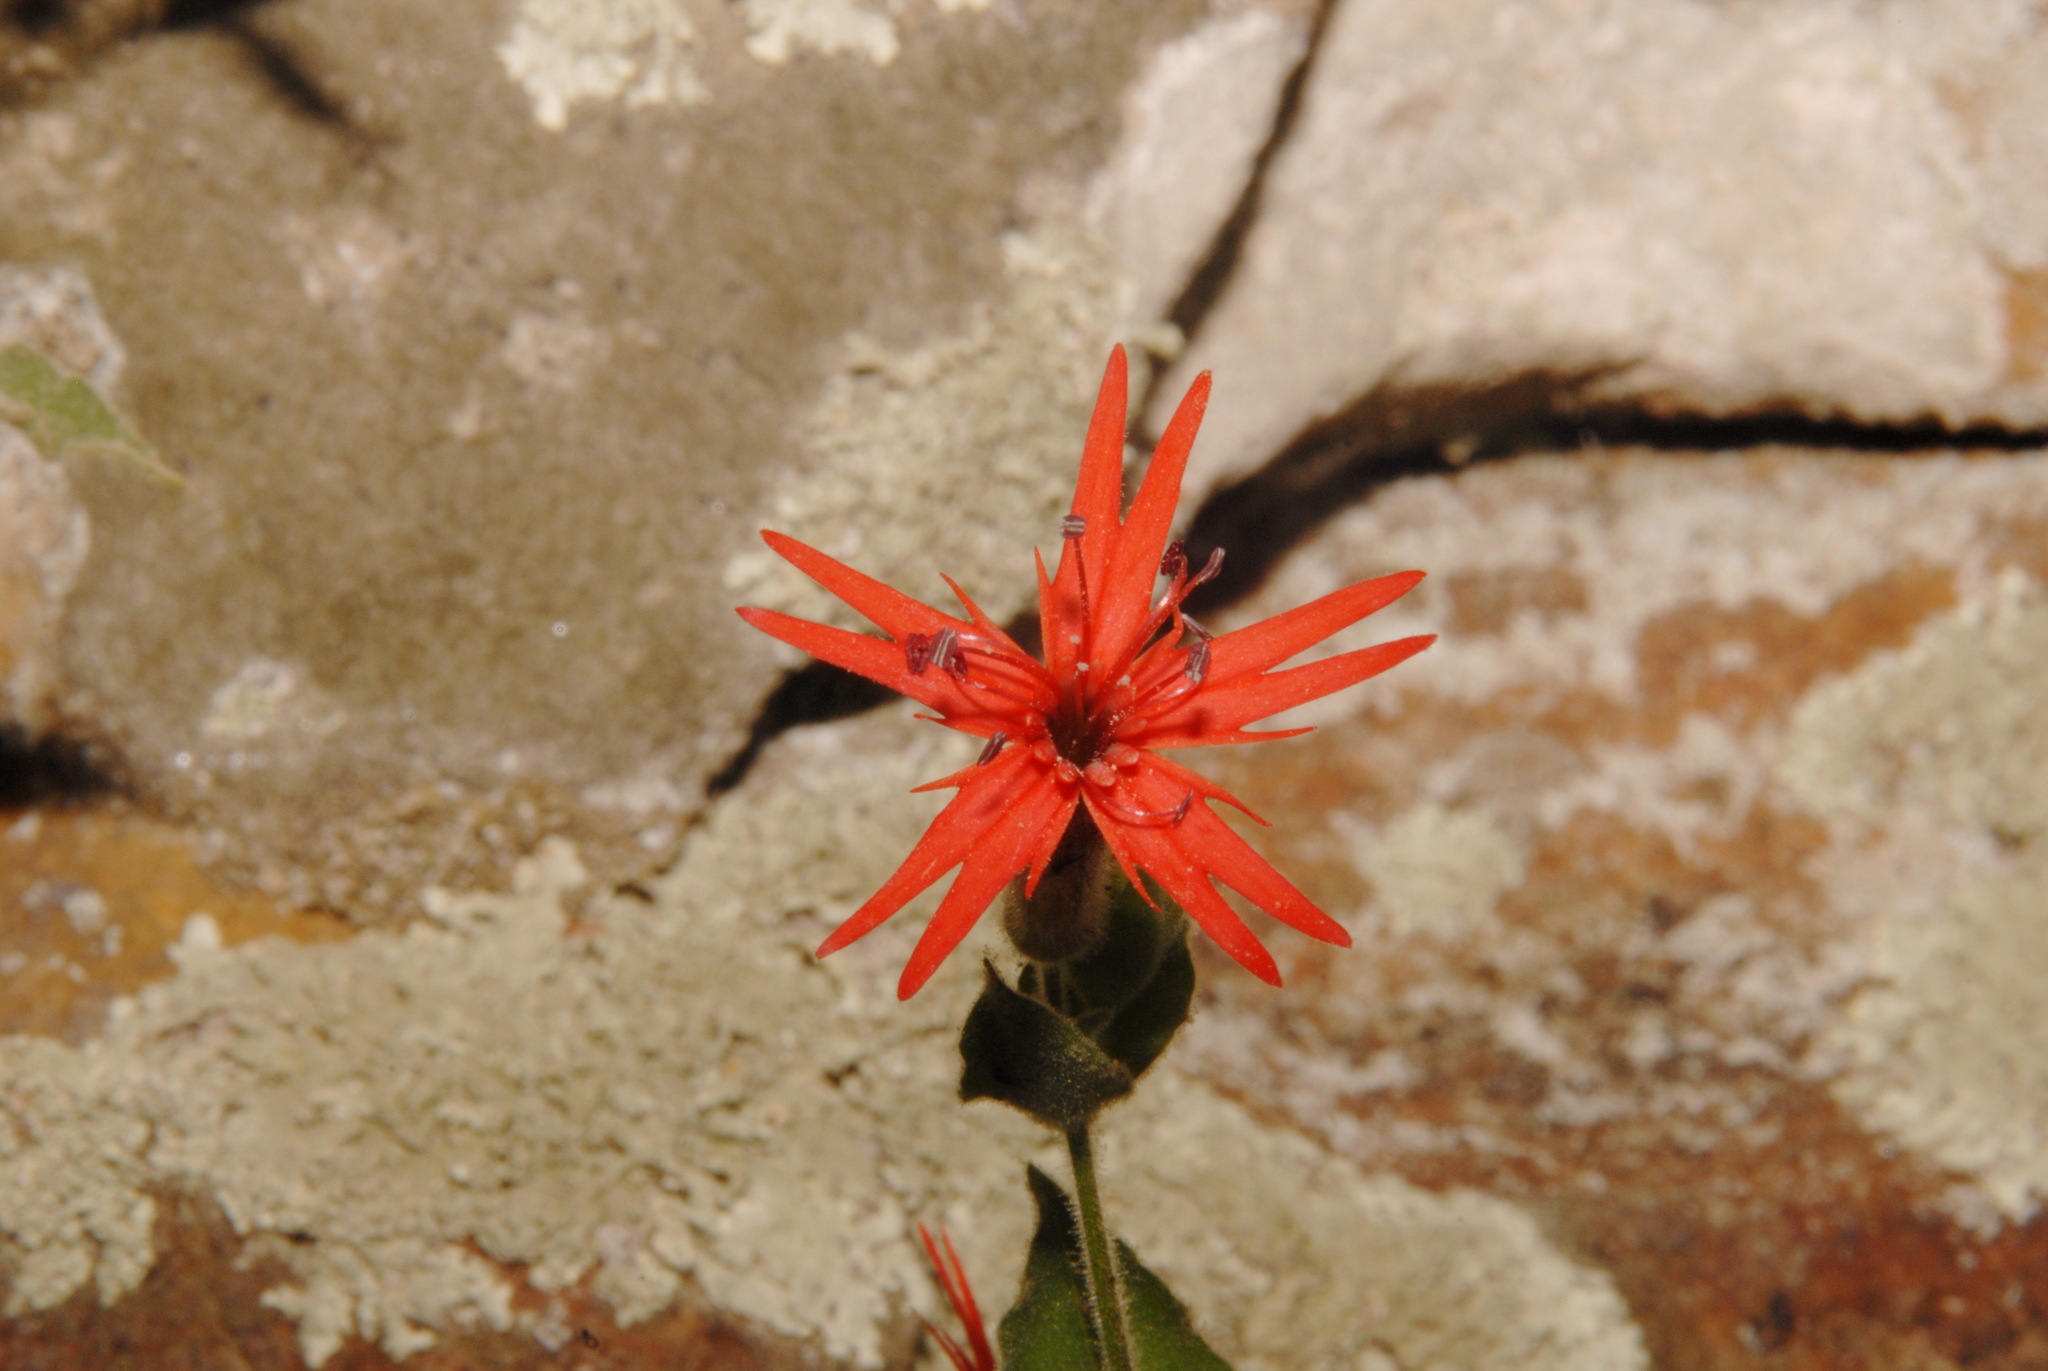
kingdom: Plantae
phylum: Tracheophyta
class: Magnoliopsida
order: Caryophyllales
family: Caryophyllaceae
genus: Silene
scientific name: Silene rotundifolia
